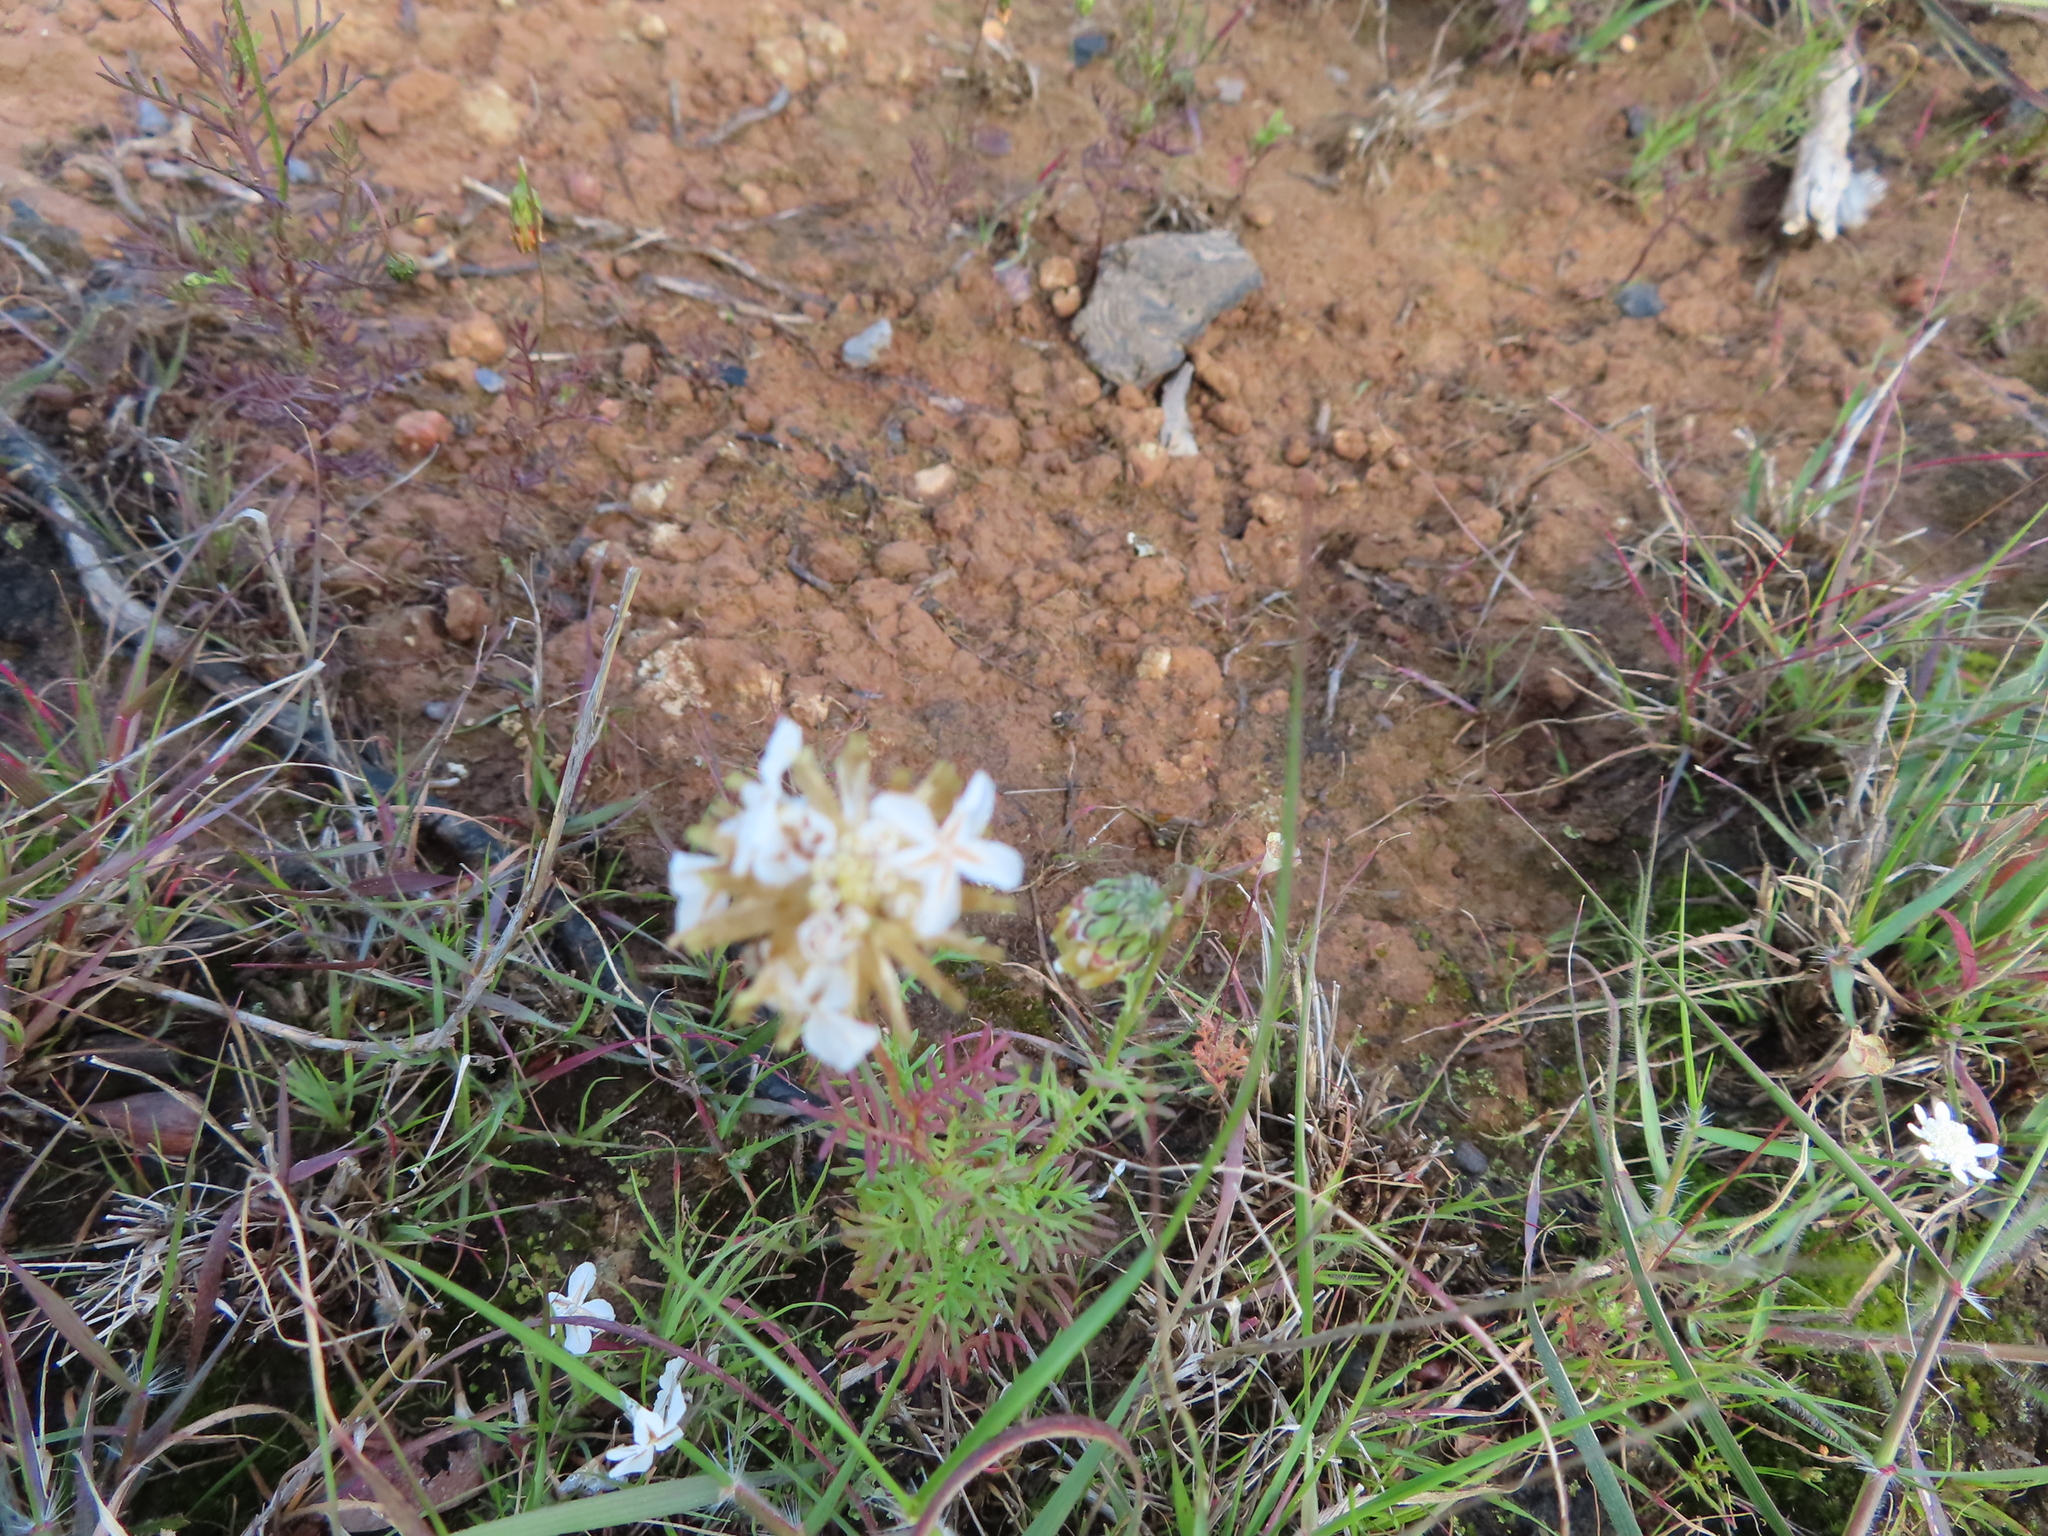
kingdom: Plantae
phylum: Tracheophyta
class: Magnoliopsida
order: Asterales
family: Asteraceae
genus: Ursinia
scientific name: Ursinia anthemoides
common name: Ursinia
